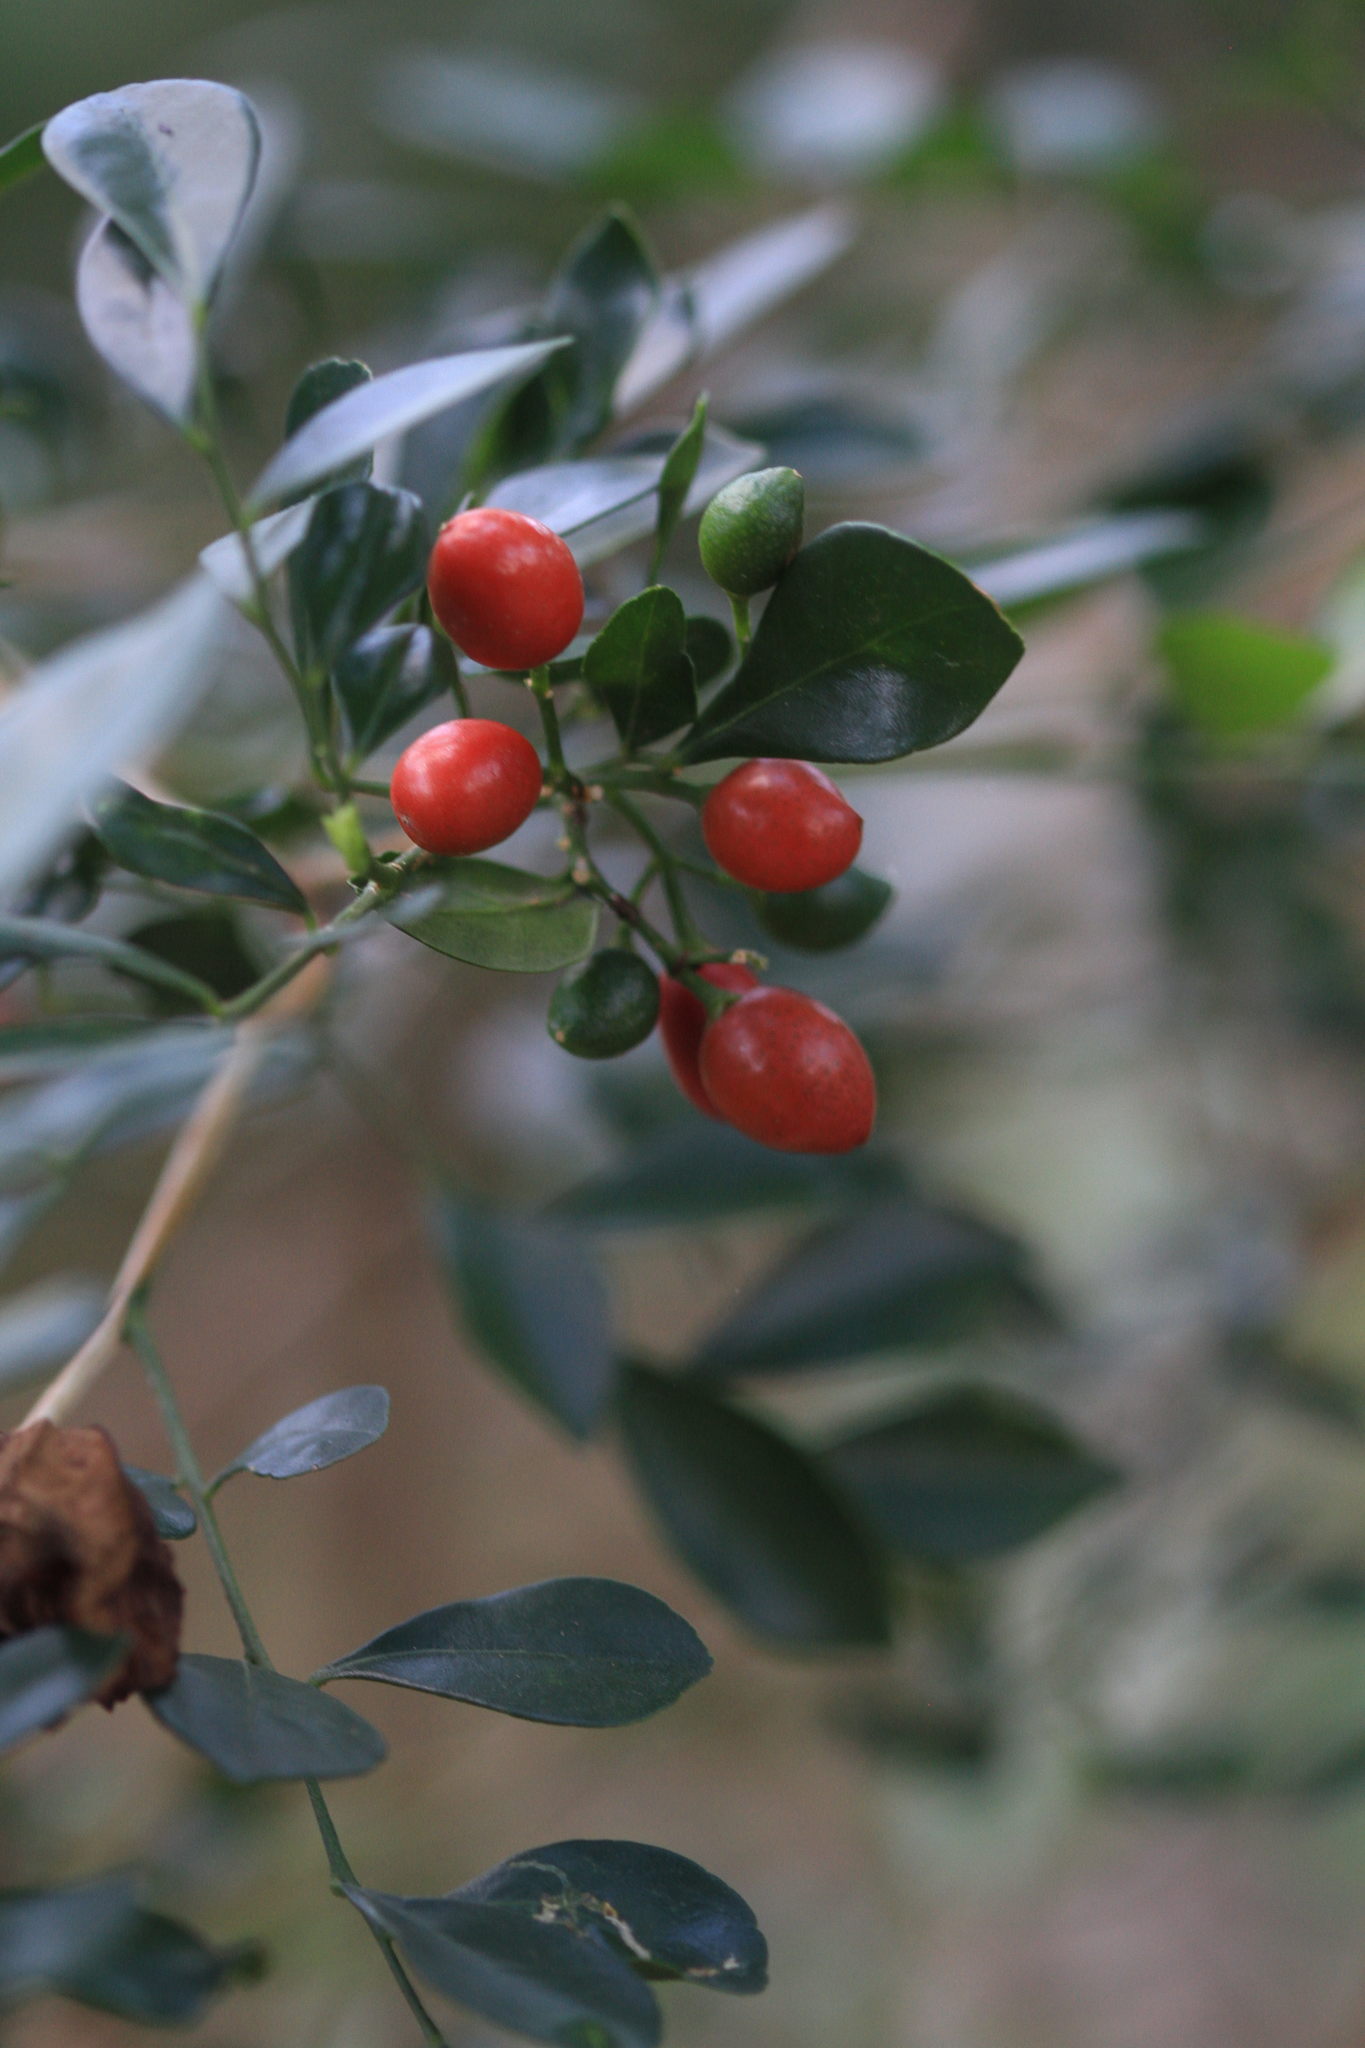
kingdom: Plantae
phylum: Tracheophyta
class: Magnoliopsida
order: Sapindales
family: Rutaceae
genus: Murraya
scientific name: Murraya paniculata
